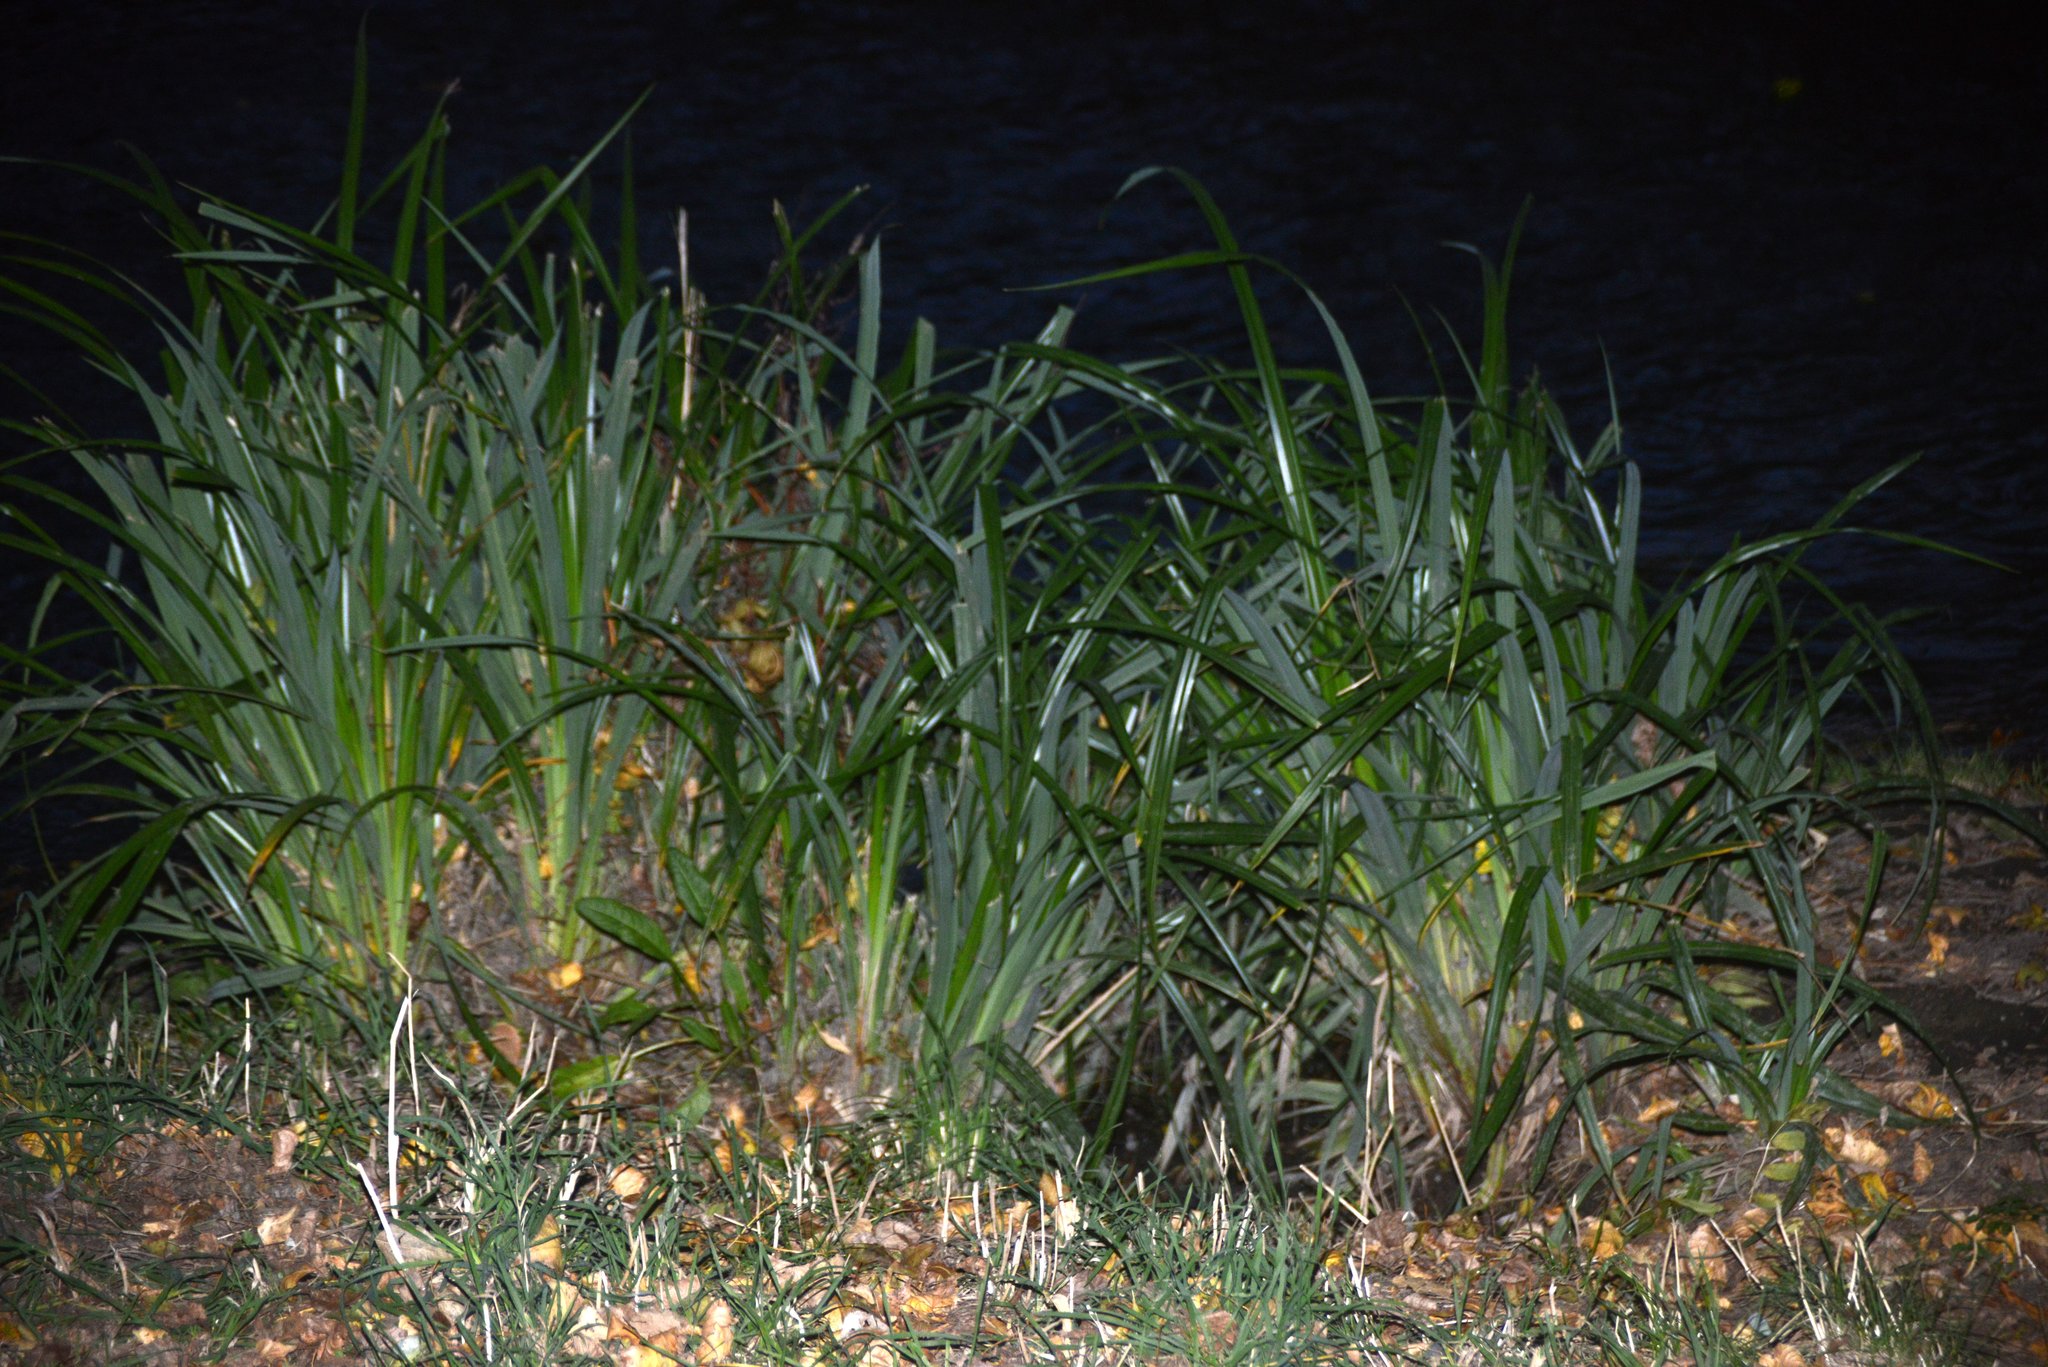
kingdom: Plantae
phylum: Tracheophyta
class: Liliopsida
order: Poales
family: Cyperaceae
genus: Carex
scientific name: Carex pendula
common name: Pendulous sedge
